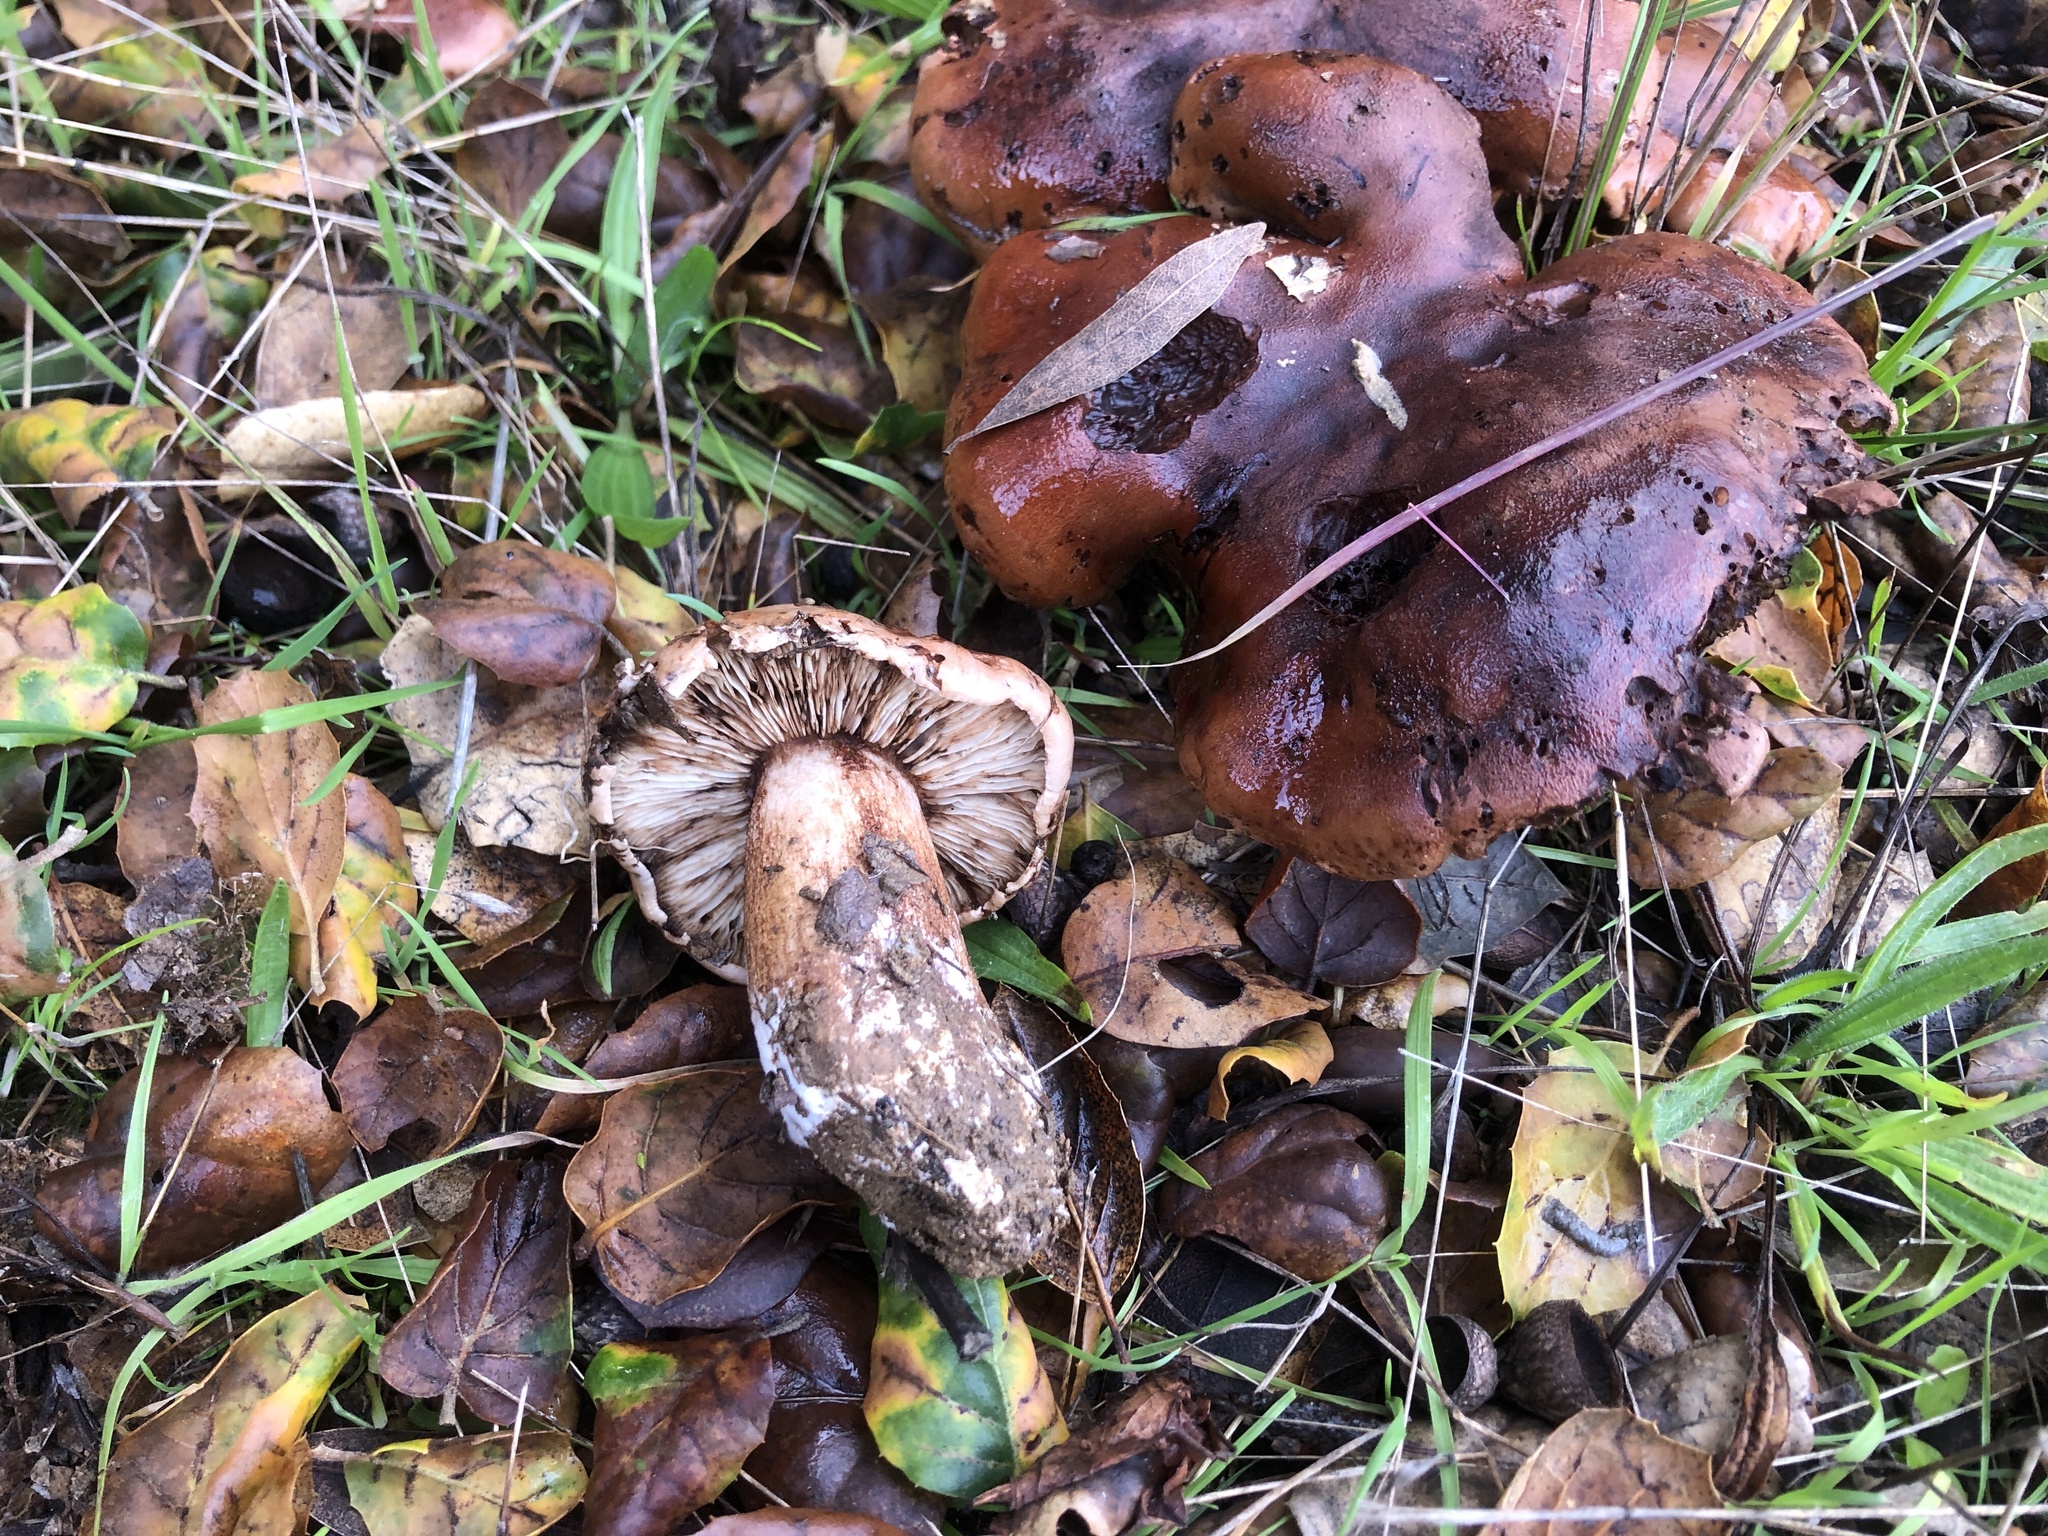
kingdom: Fungi
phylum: Basidiomycota
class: Agaricomycetes
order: Agaricales
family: Tricholomataceae
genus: Melanoleuca
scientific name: Melanoleuca dryophila
